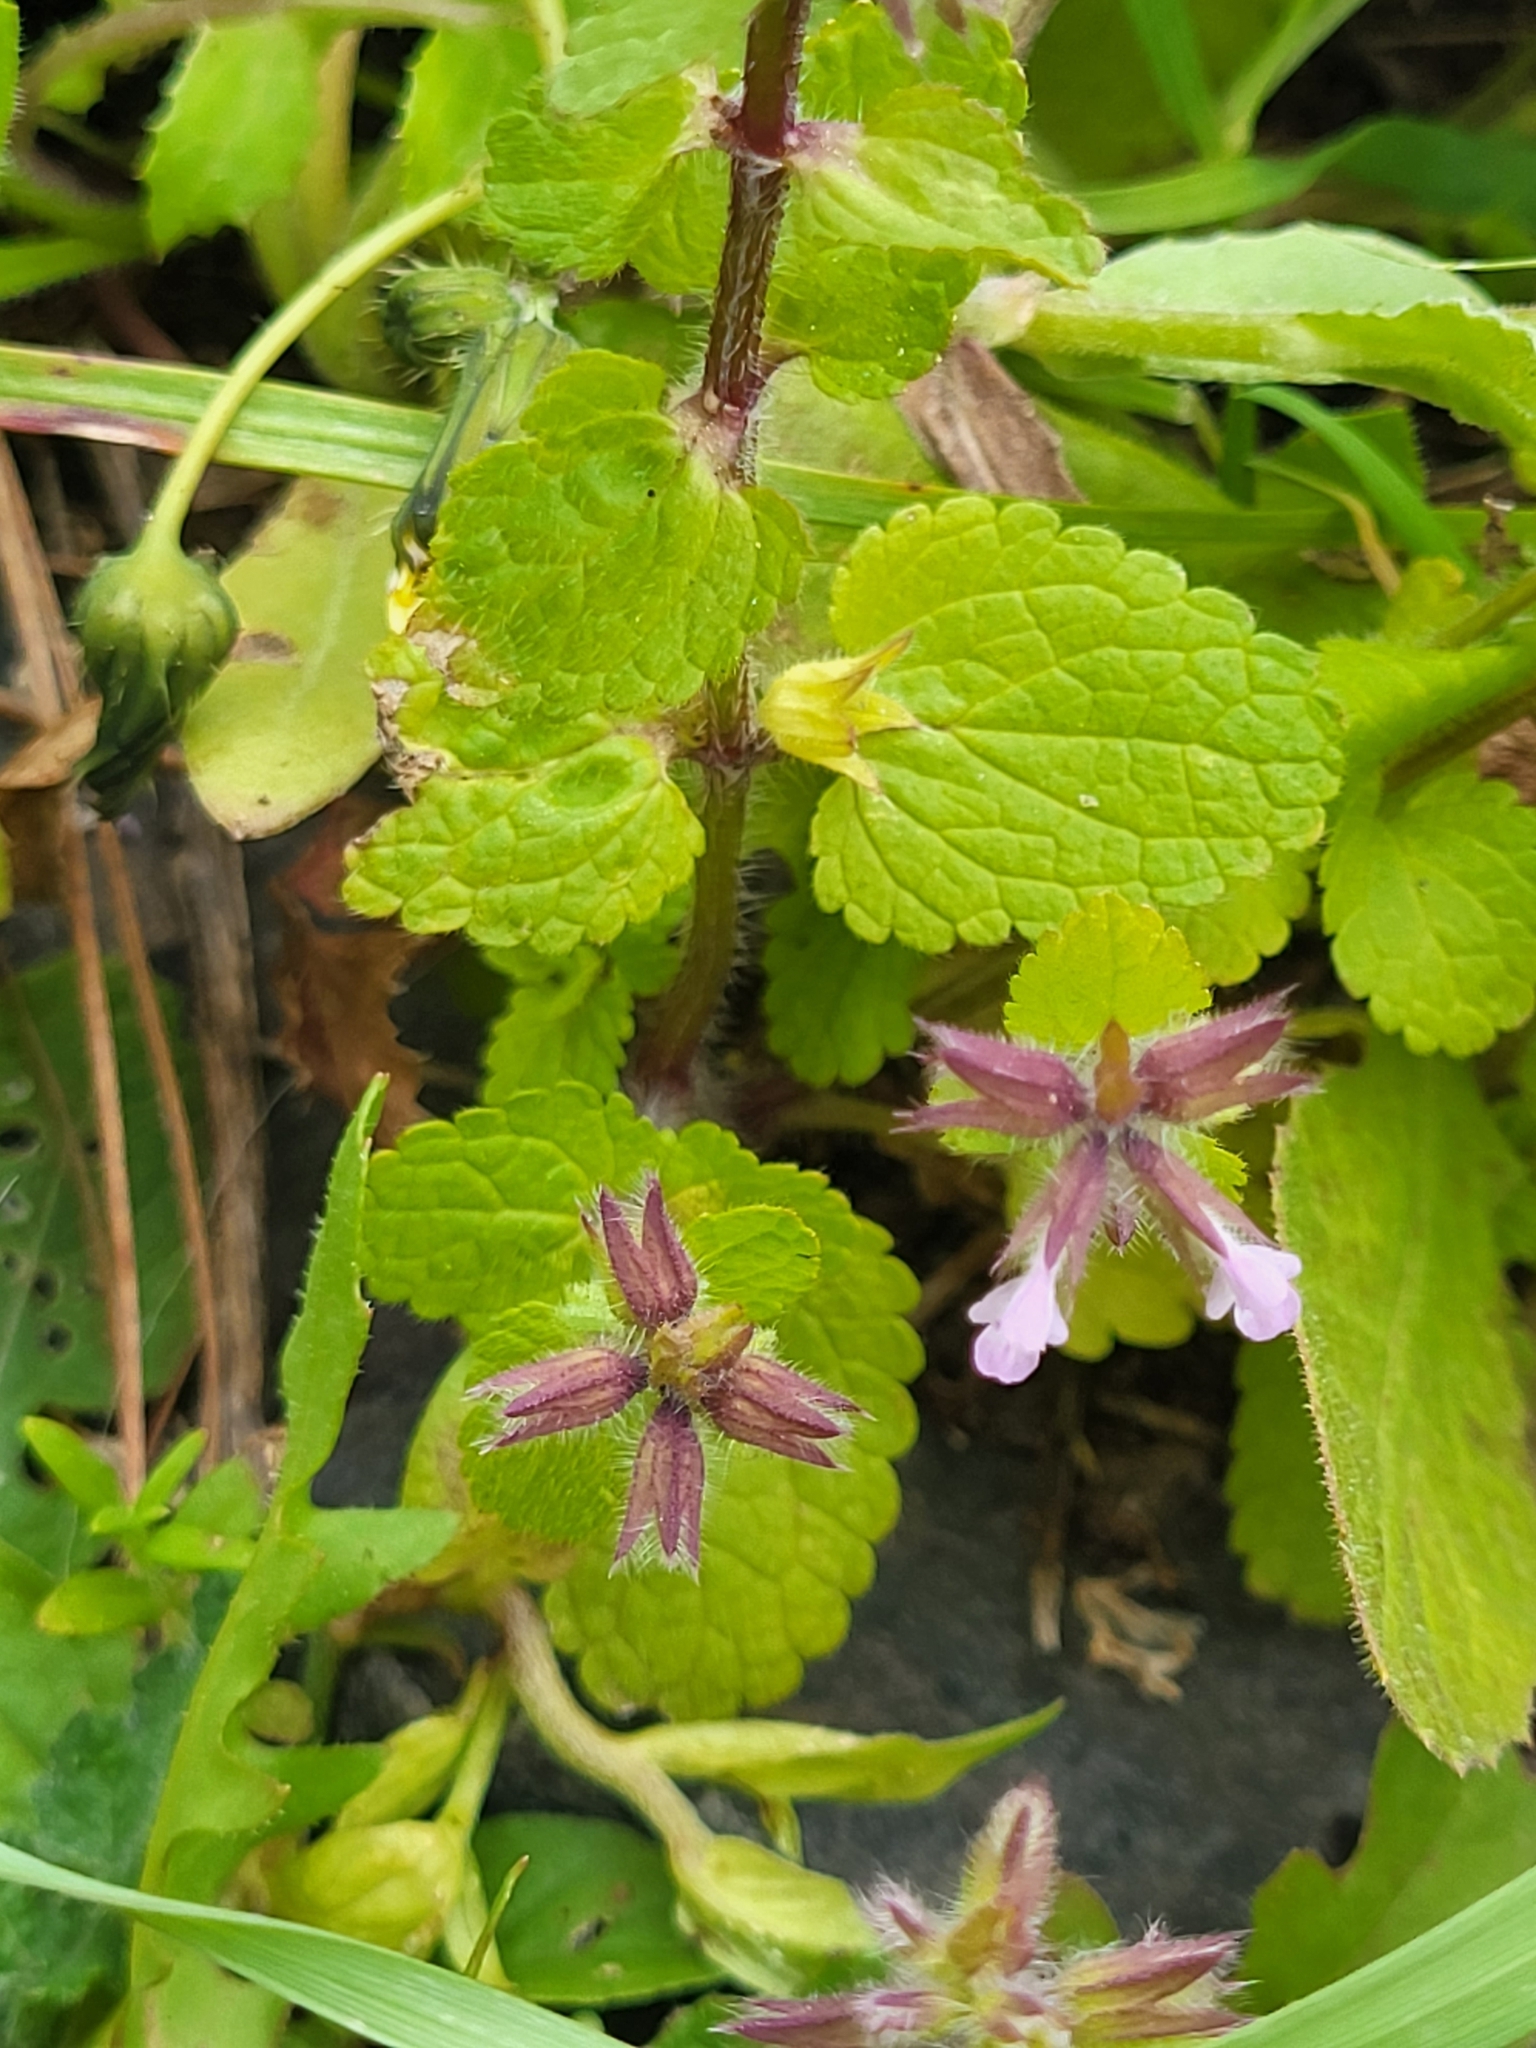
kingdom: Plantae
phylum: Tracheophyta
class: Magnoliopsida
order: Lamiales
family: Lamiaceae
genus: Stachys
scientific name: Stachys arvensis
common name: Field woundwort
